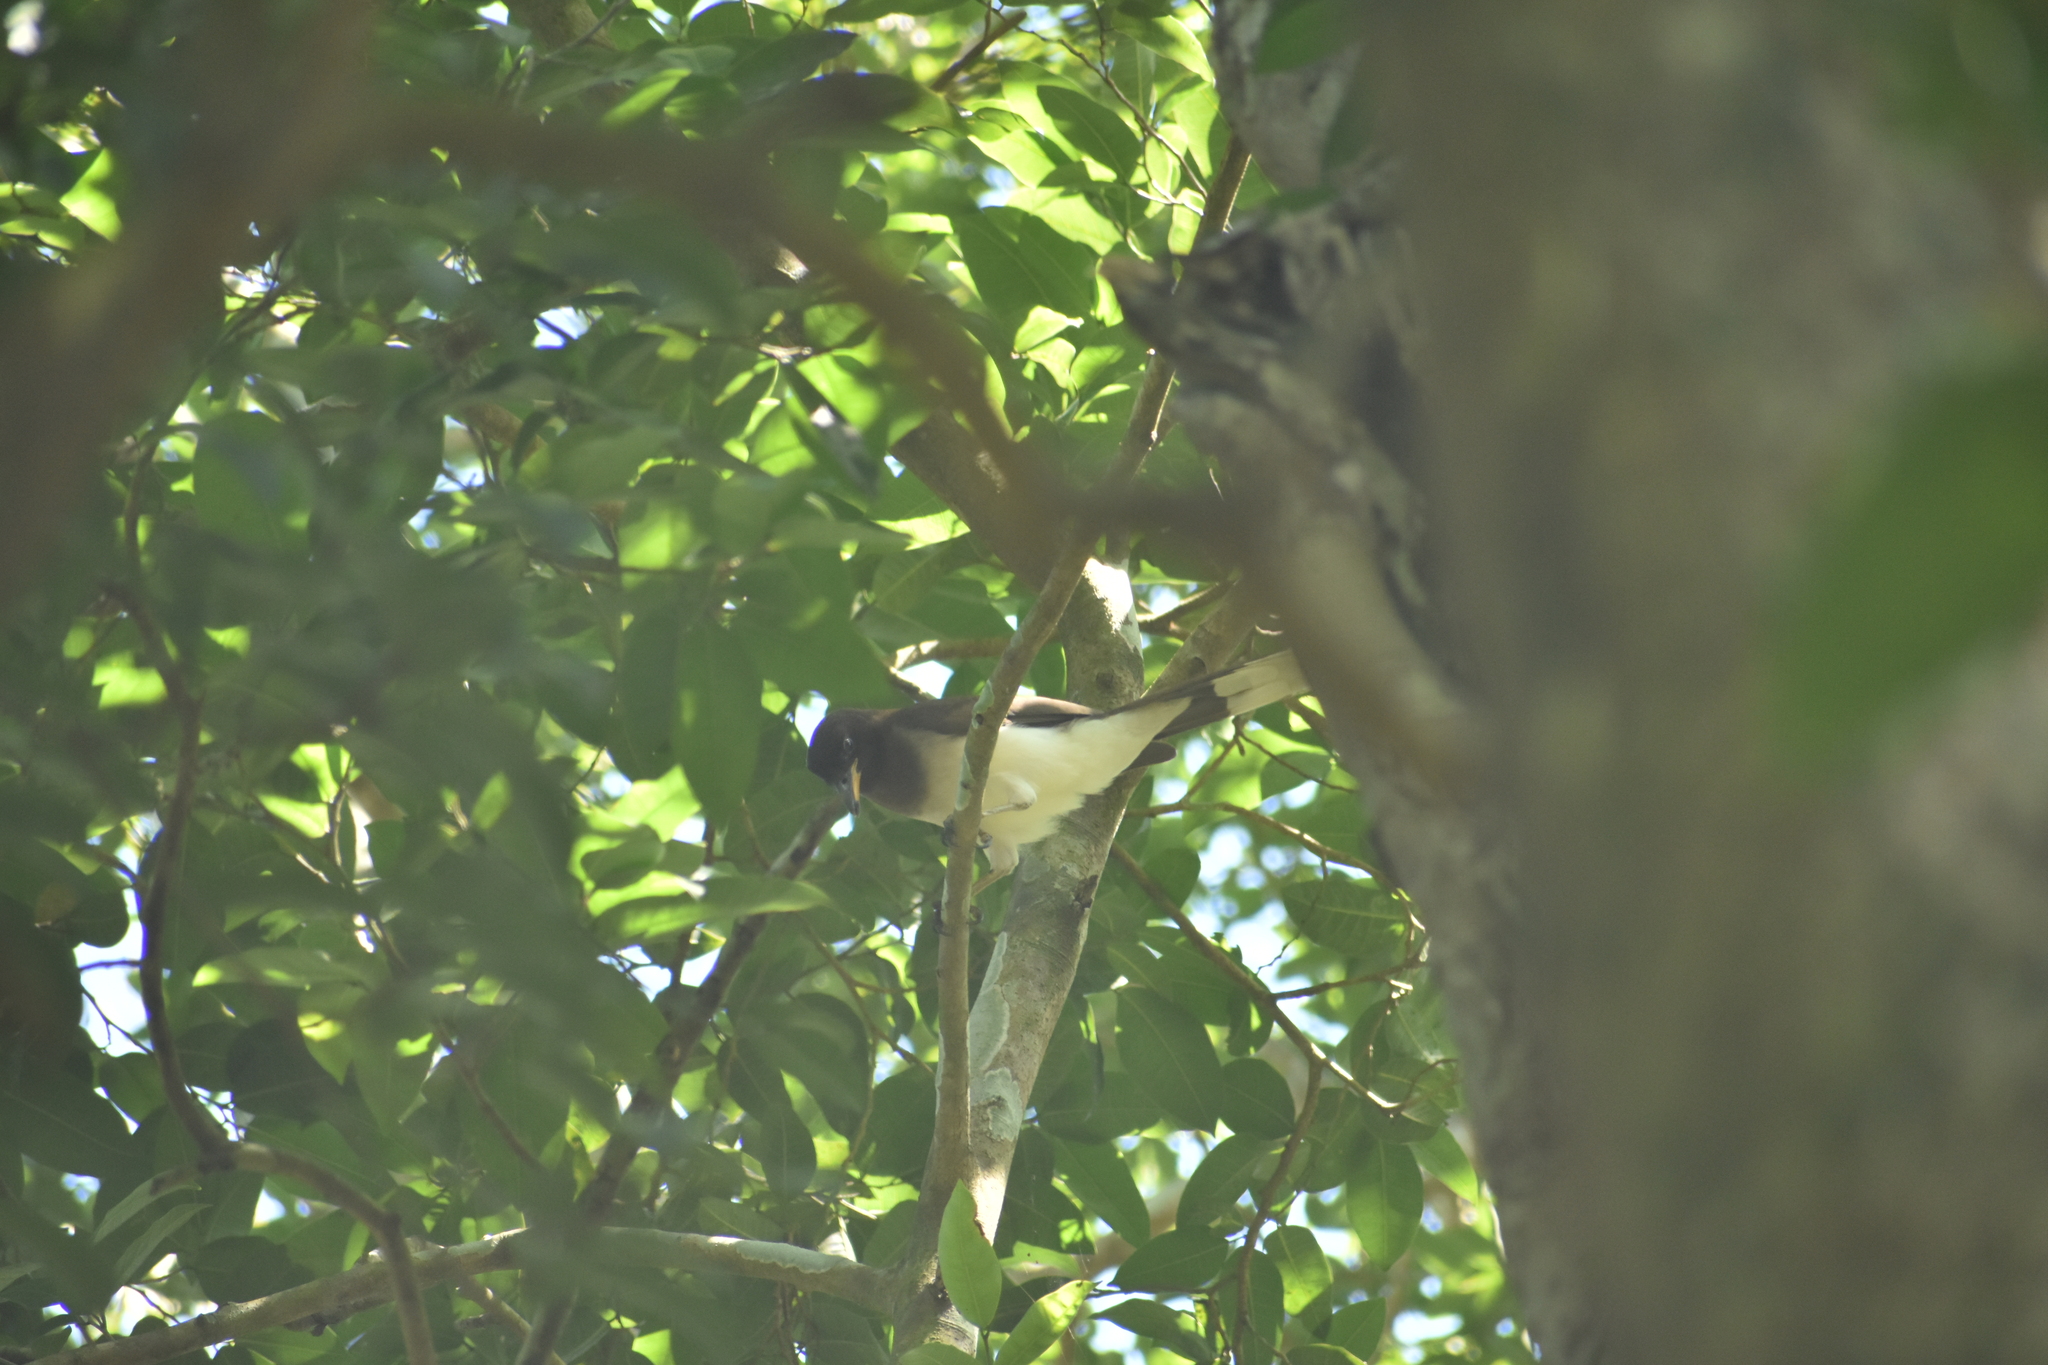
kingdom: Animalia
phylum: Chordata
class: Aves
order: Passeriformes
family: Corvidae
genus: Psilorhinus
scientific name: Psilorhinus morio
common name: Brown jay
